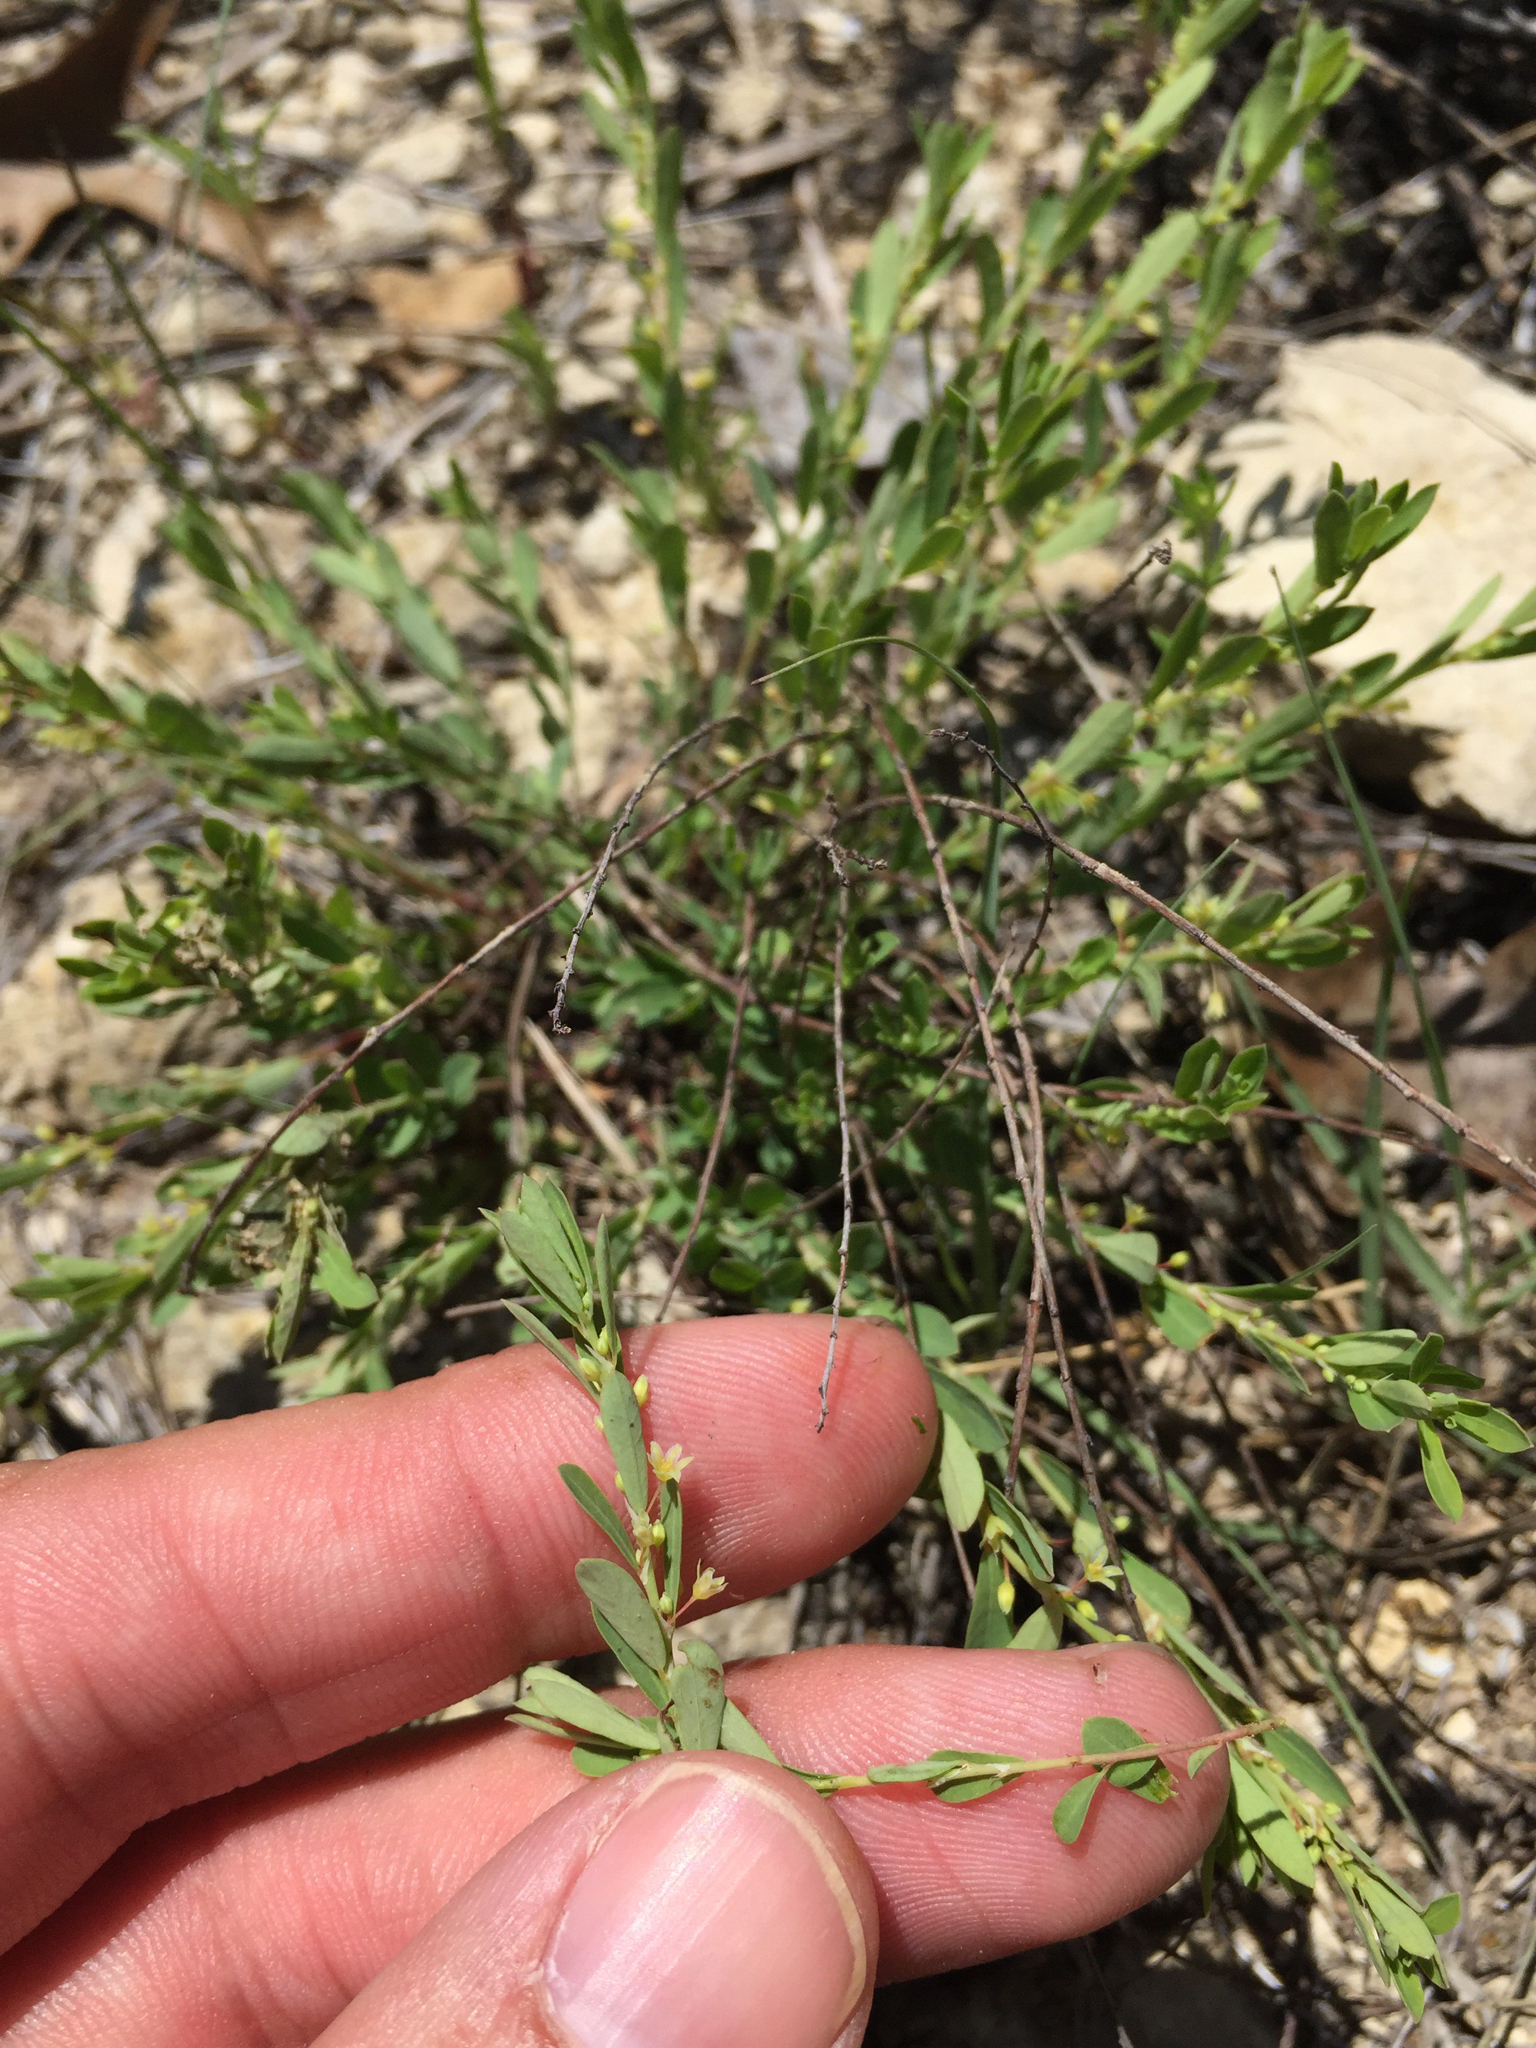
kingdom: Plantae
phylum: Tracheophyta
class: Magnoliopsida
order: Malpighiales
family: Phyllanthaceae
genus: Phyllanthus
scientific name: Phyllanthus polygonoides
